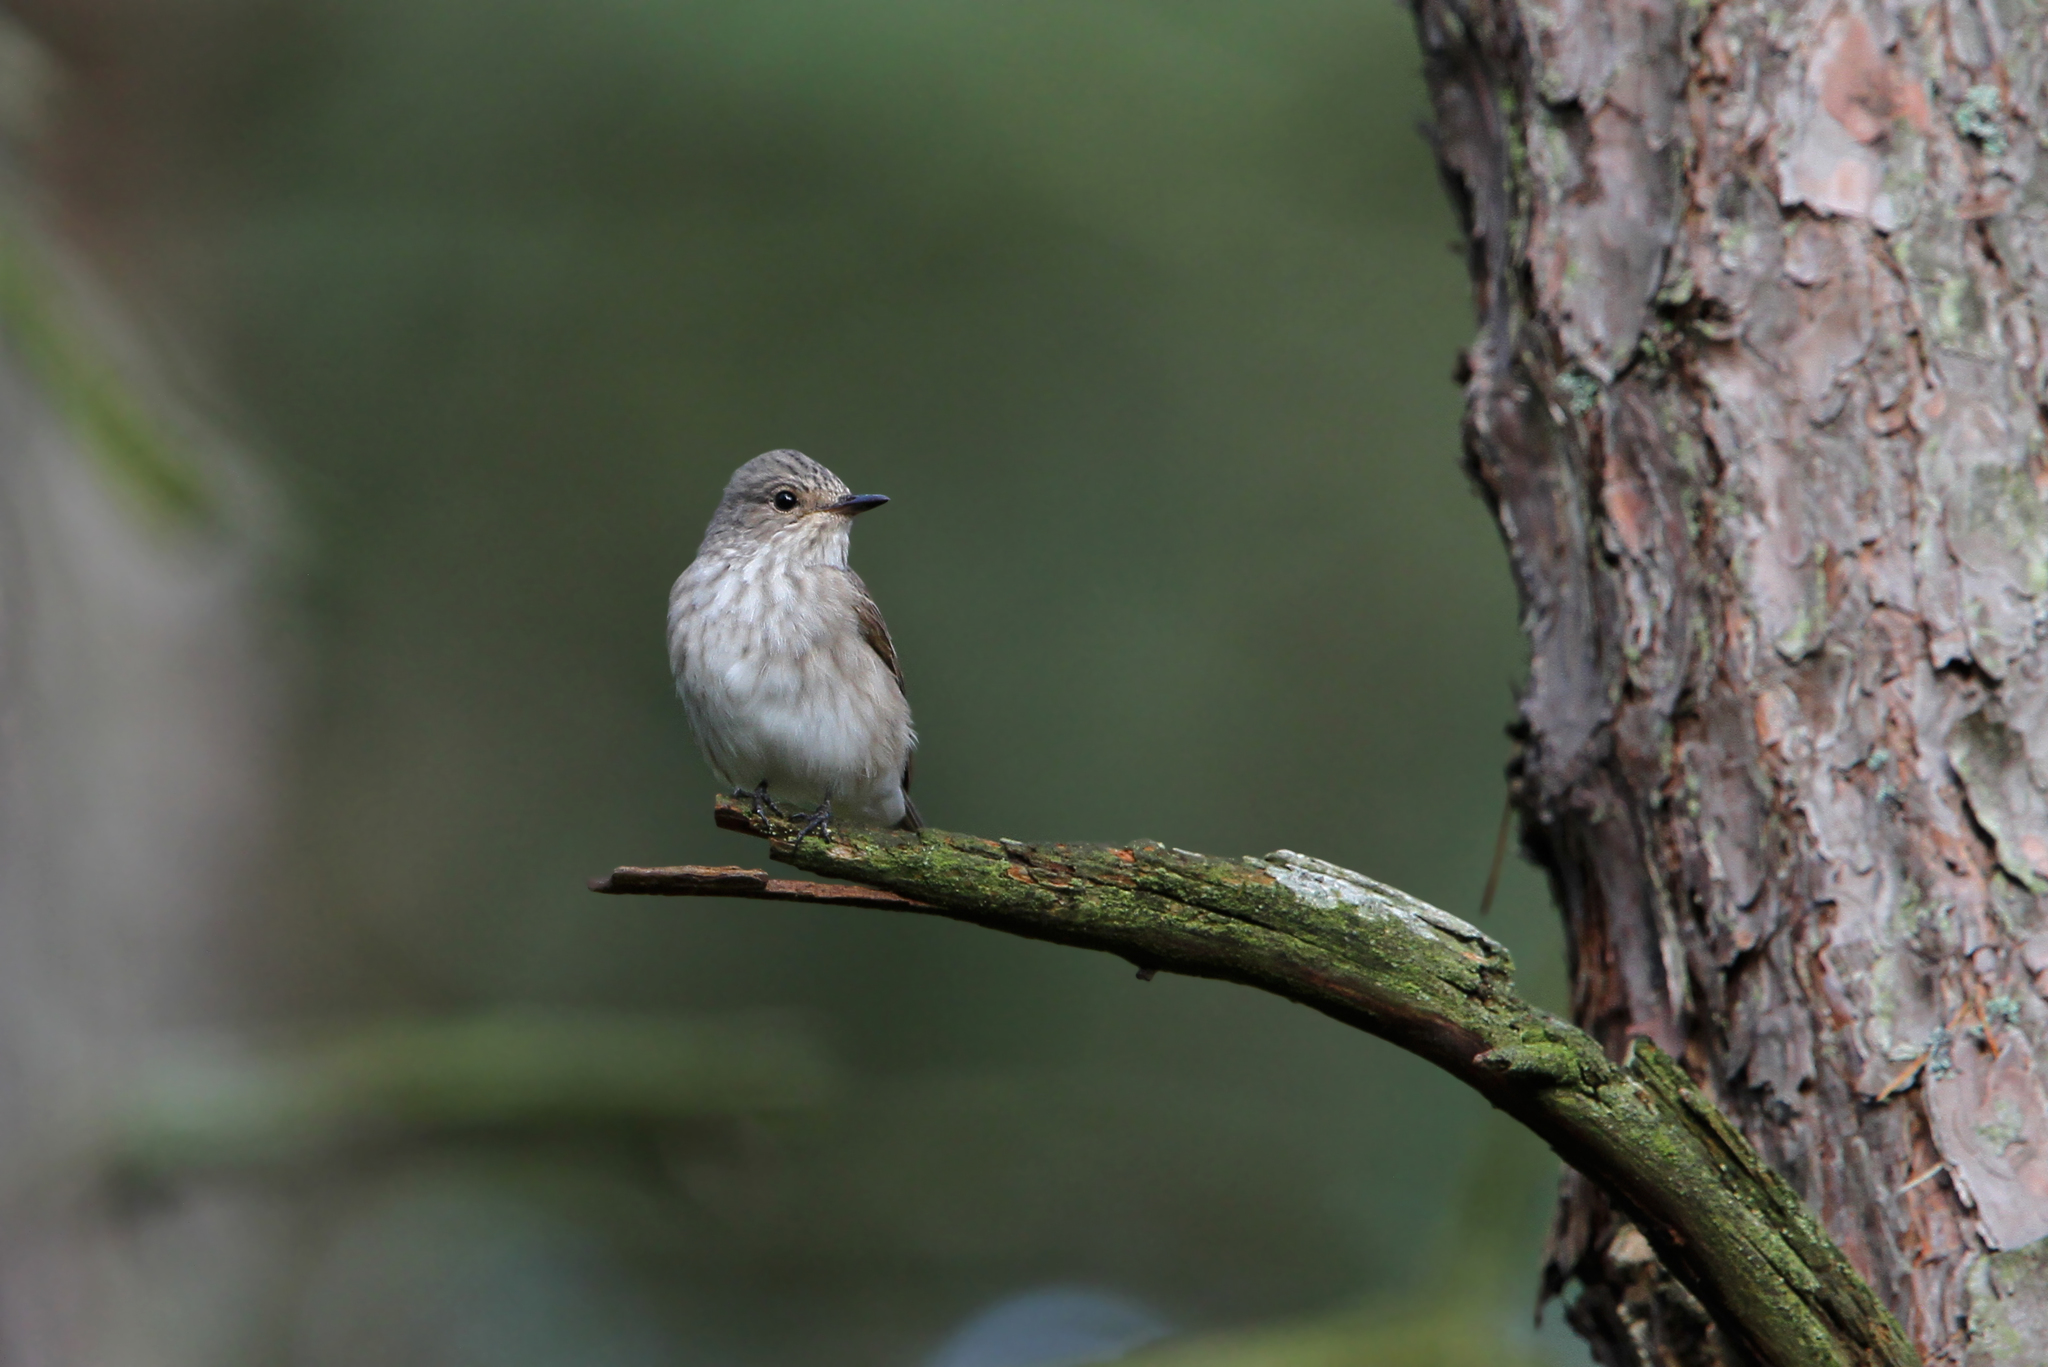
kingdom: Animalia
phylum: Chordata
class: Aves
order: Passeriformes
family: Muscicapidae
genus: Muscicapa
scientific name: Muscicapa striata
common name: Spotted flycatcher
